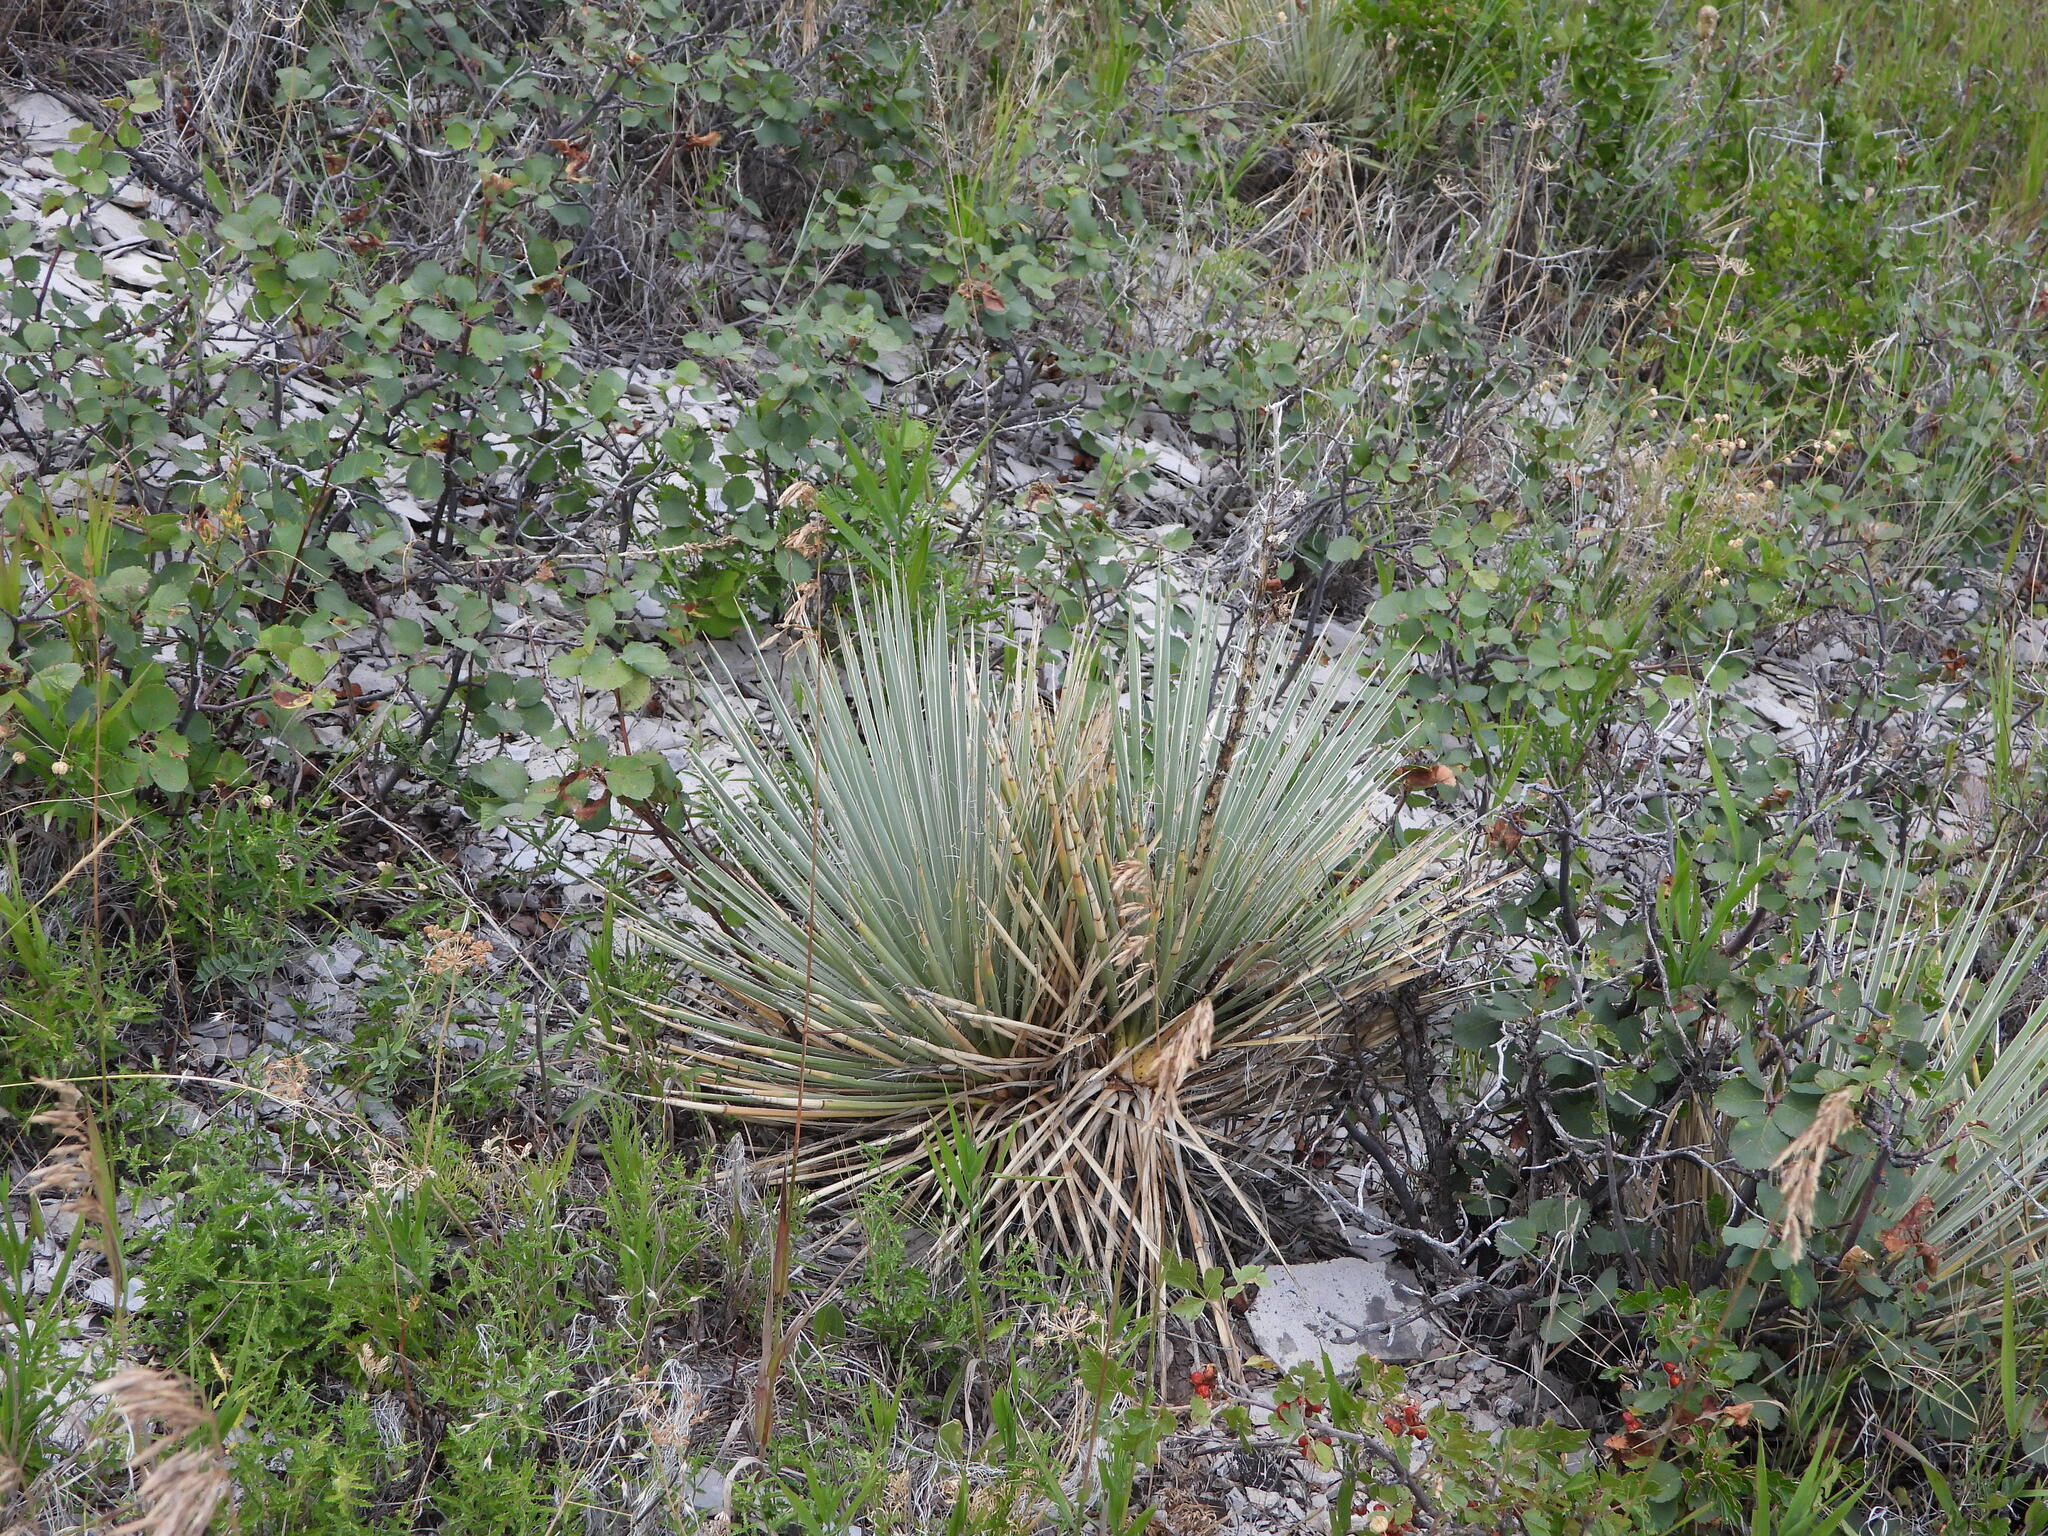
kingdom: Plantae
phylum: Tracheophyta
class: Liliopsida
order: Asparagales
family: Asparagaceae
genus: Yucca
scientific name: Yucca glauca
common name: Great plains yucca
